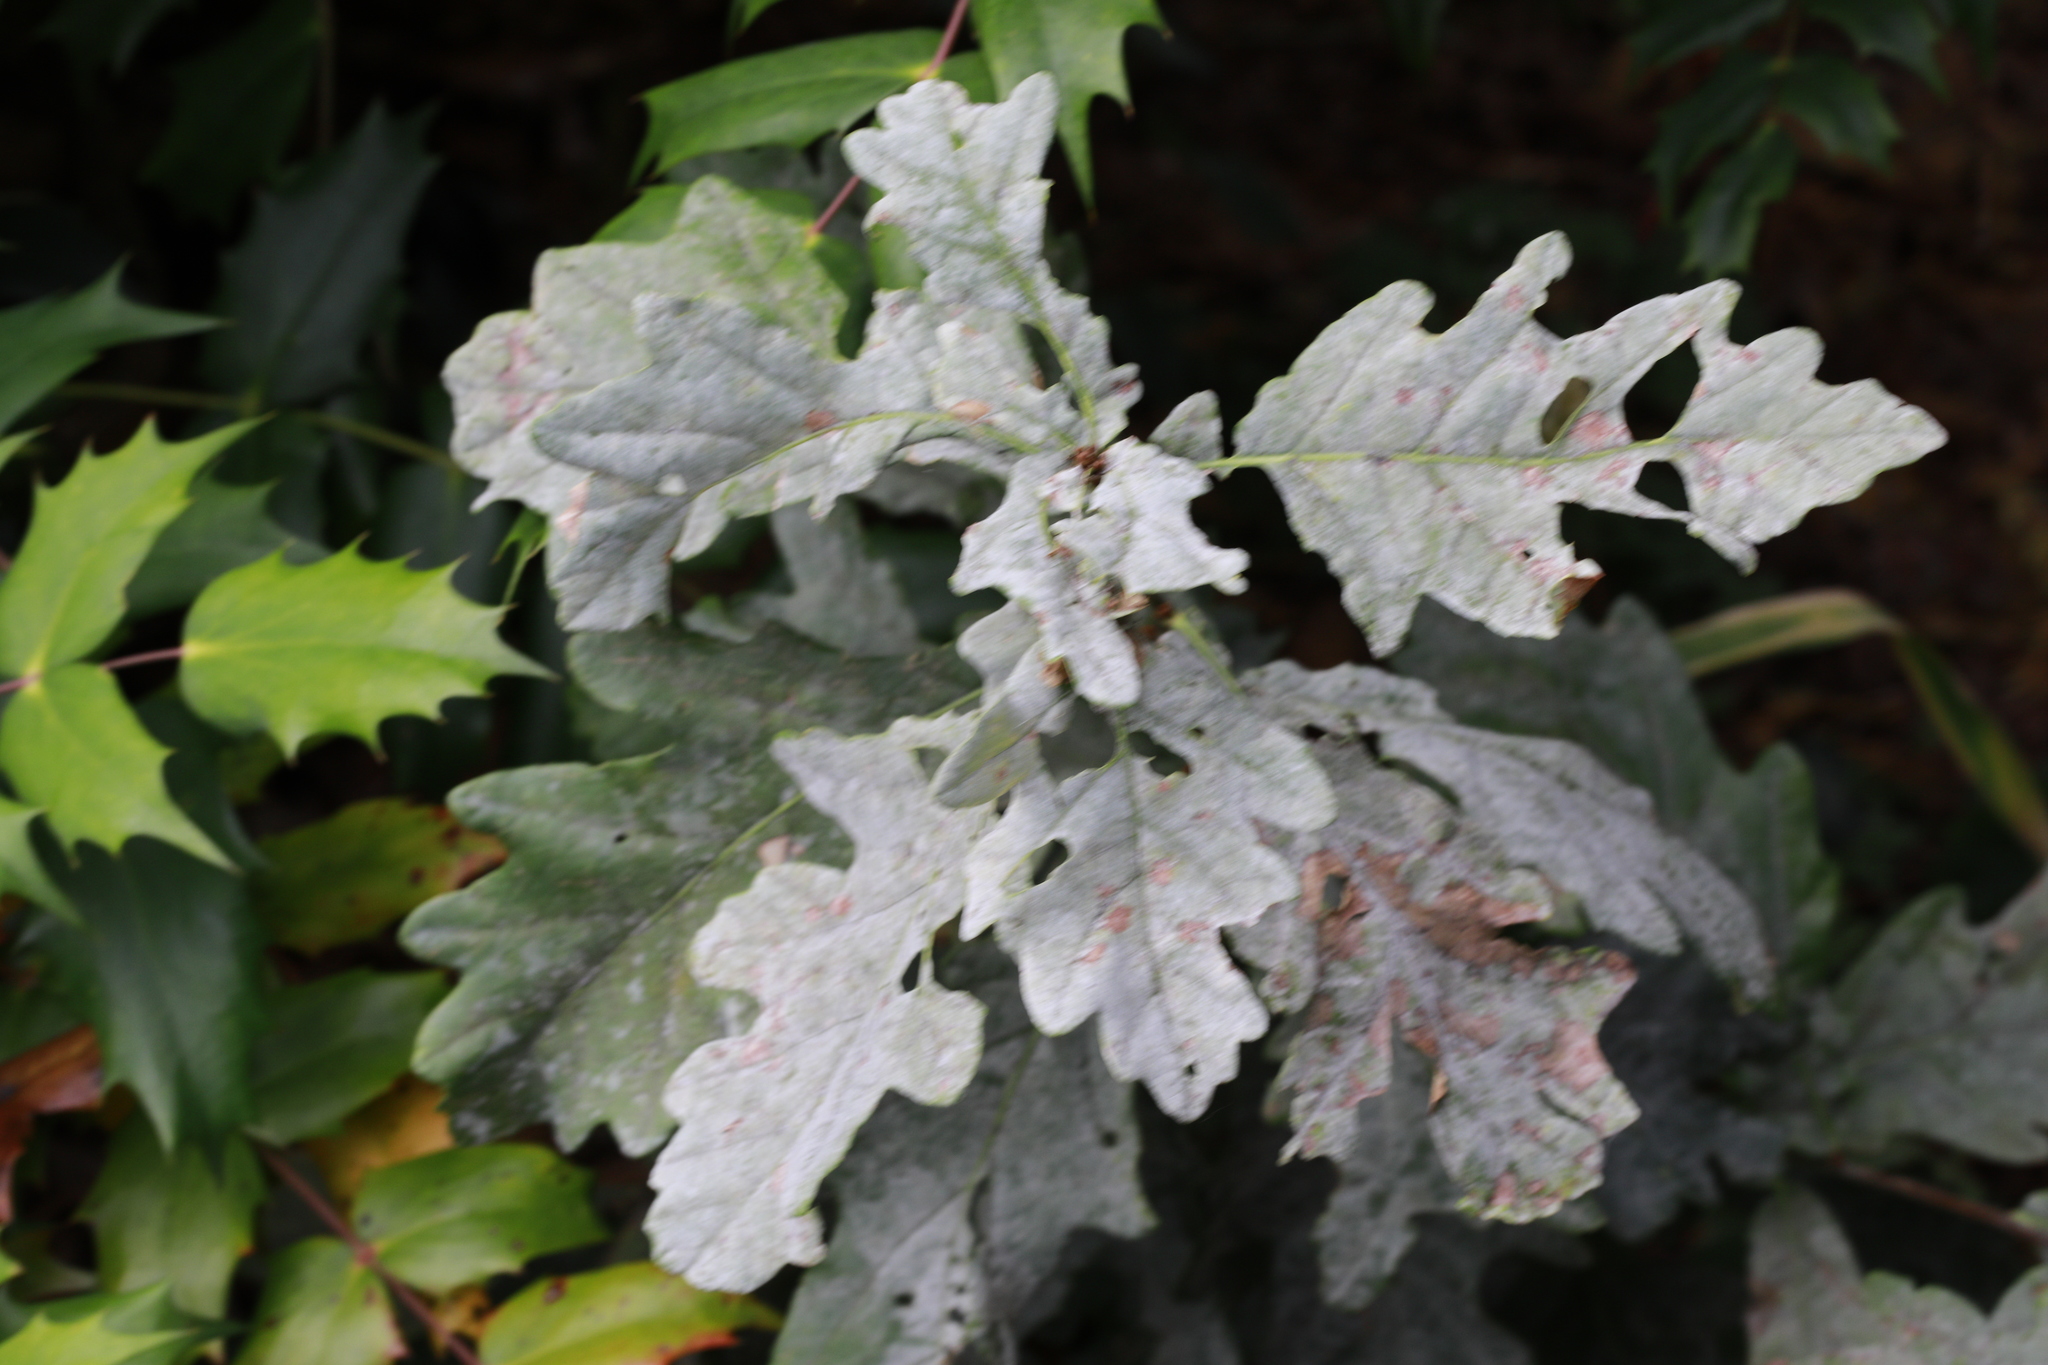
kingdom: Plantae
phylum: Tracheophyta
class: Magnoliopsida
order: Fagales
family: Fagaceae
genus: Quercus
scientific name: Quercus robur
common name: Pedunculate oak
